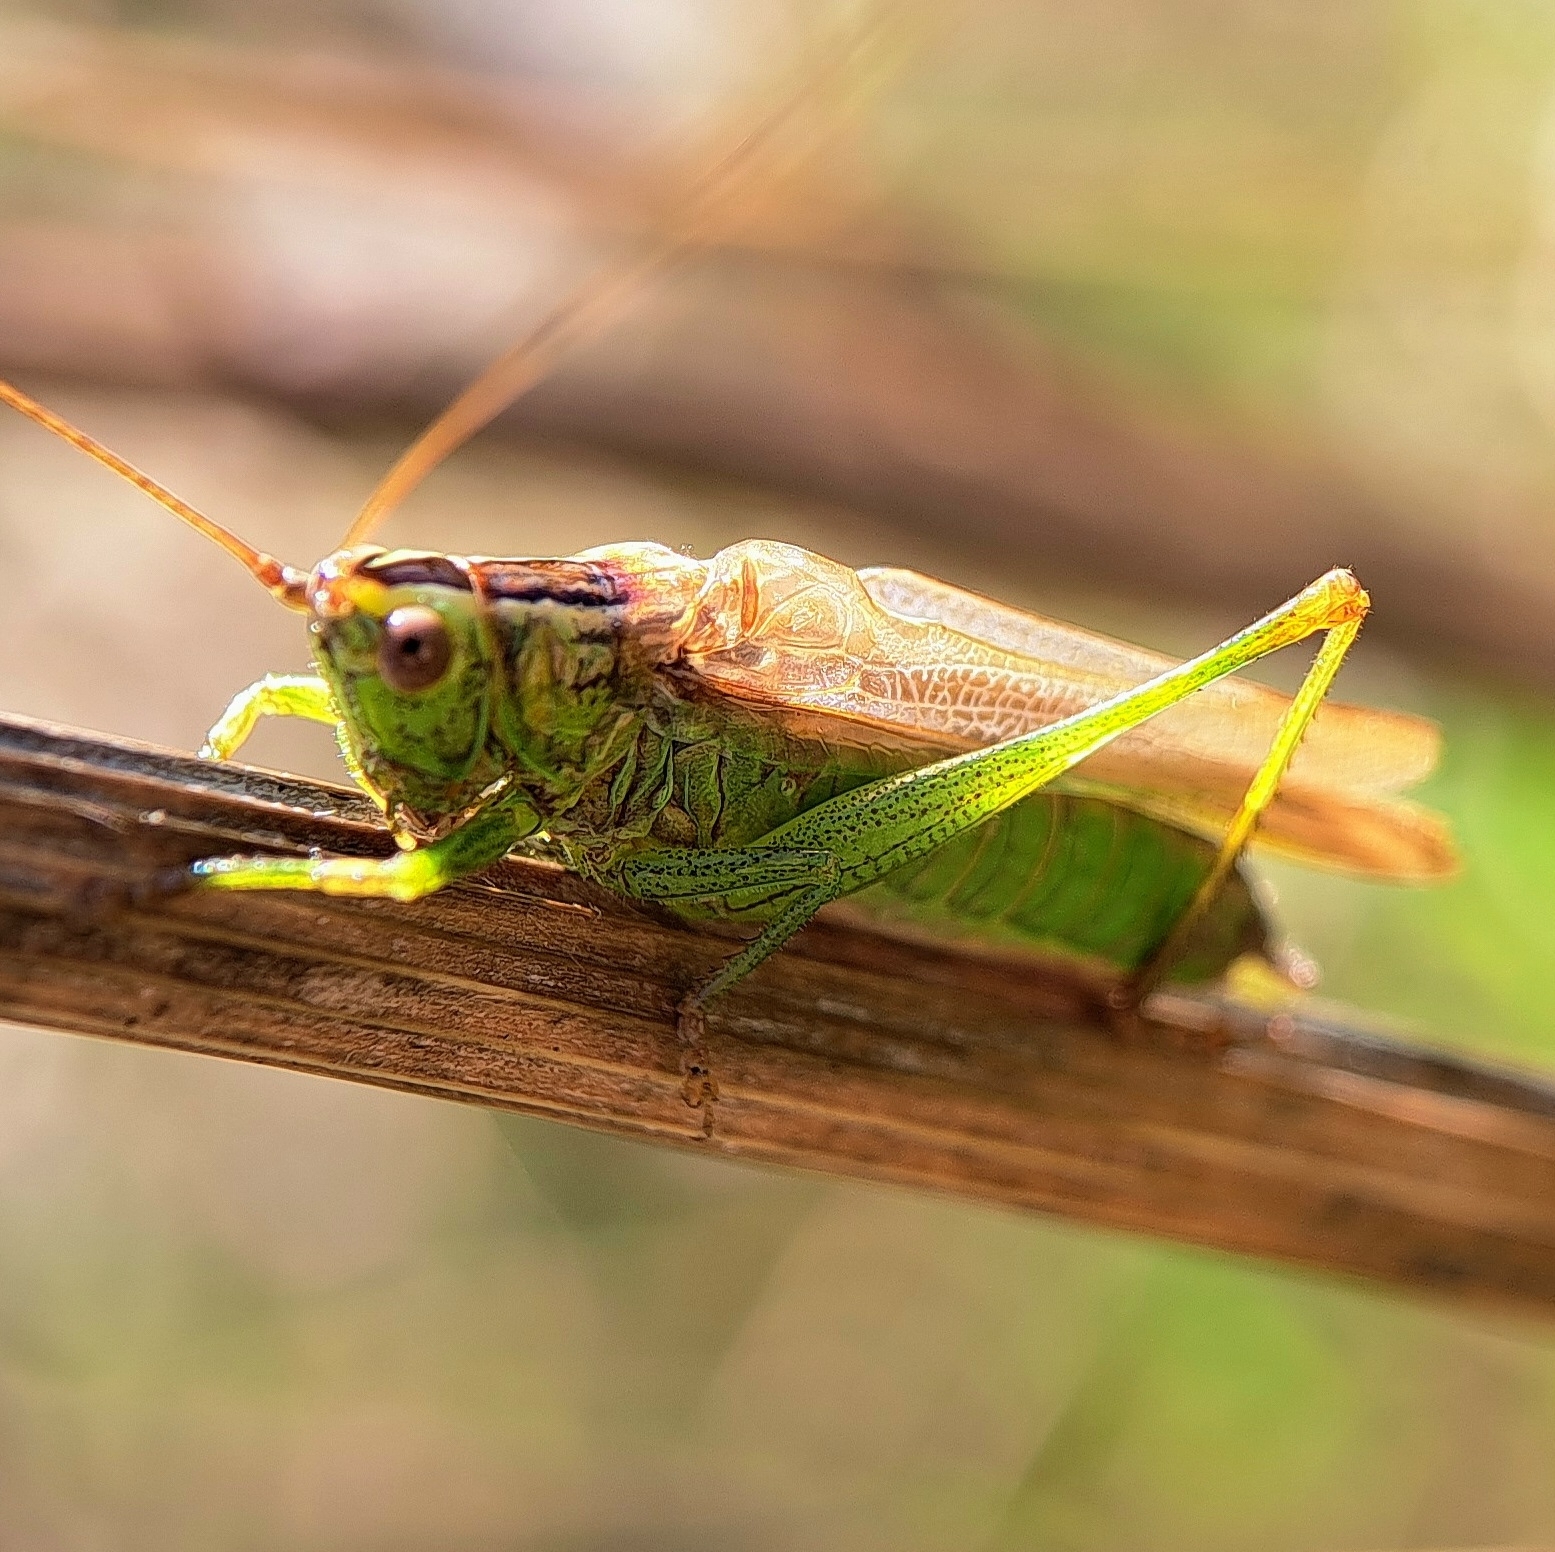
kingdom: Animalia
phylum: Arthropoda
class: Insecta
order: Orthoptera
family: Tettigoniidae
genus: Conocephalus
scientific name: Conocephalus fuscus
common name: Long-winged conehead
